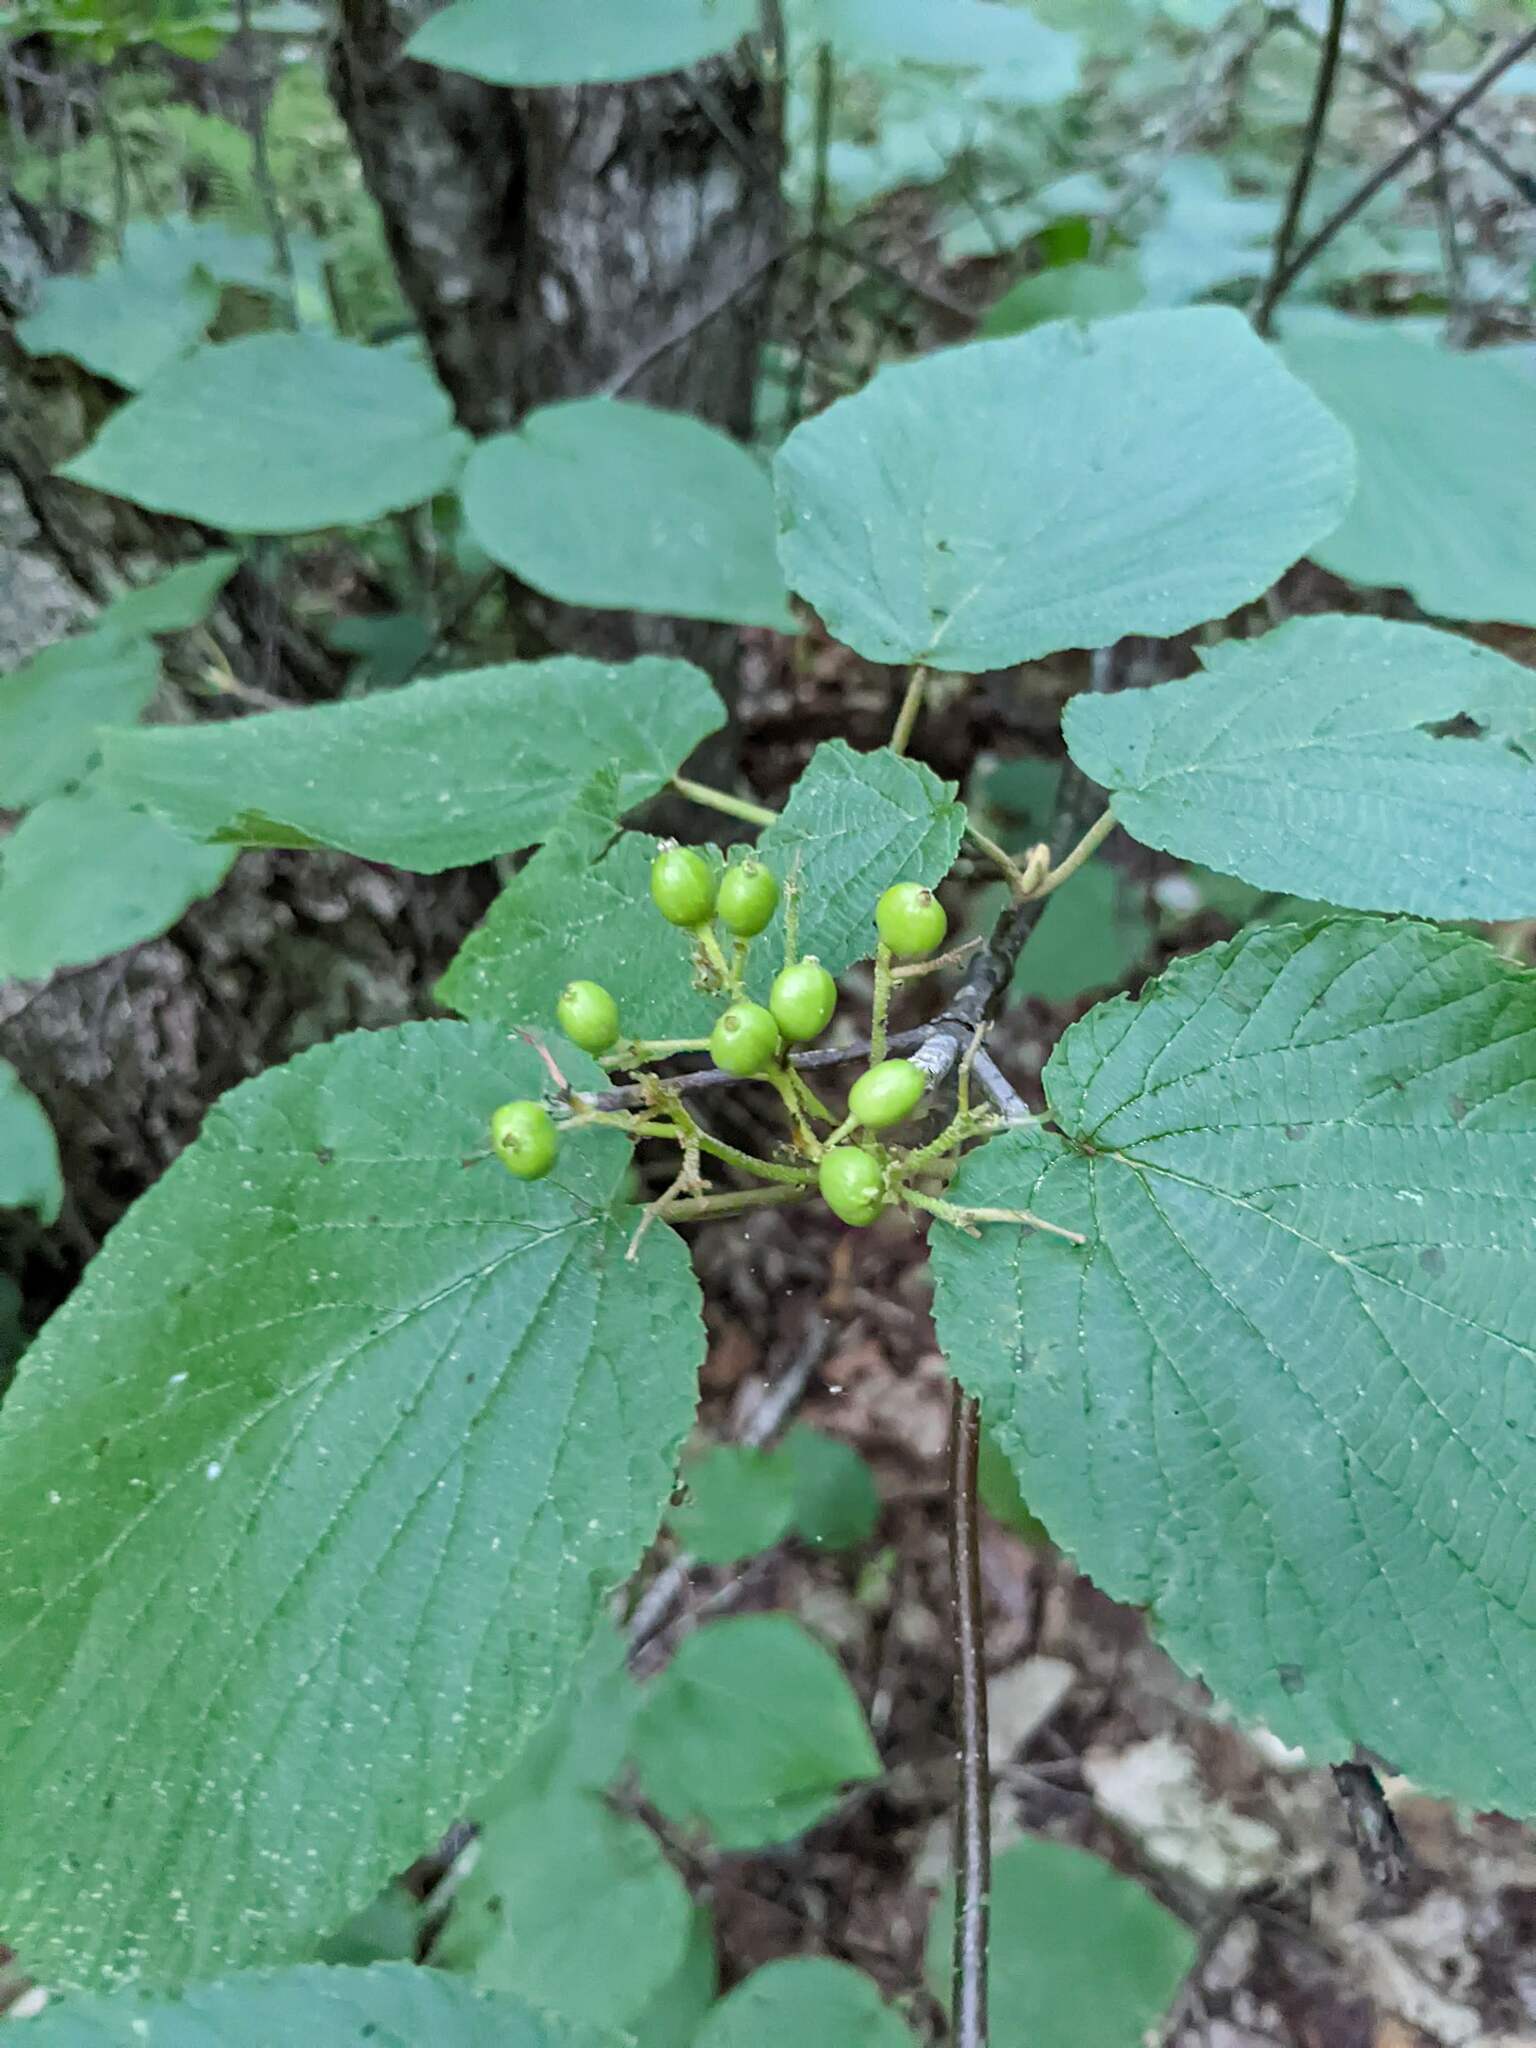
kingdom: Plantae
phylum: Tracheophyta
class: Magnoliopsida
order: Dipsacales
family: Viburnaceae
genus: Viburnum
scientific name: Viburnum lantanoides
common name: Hobblebush
